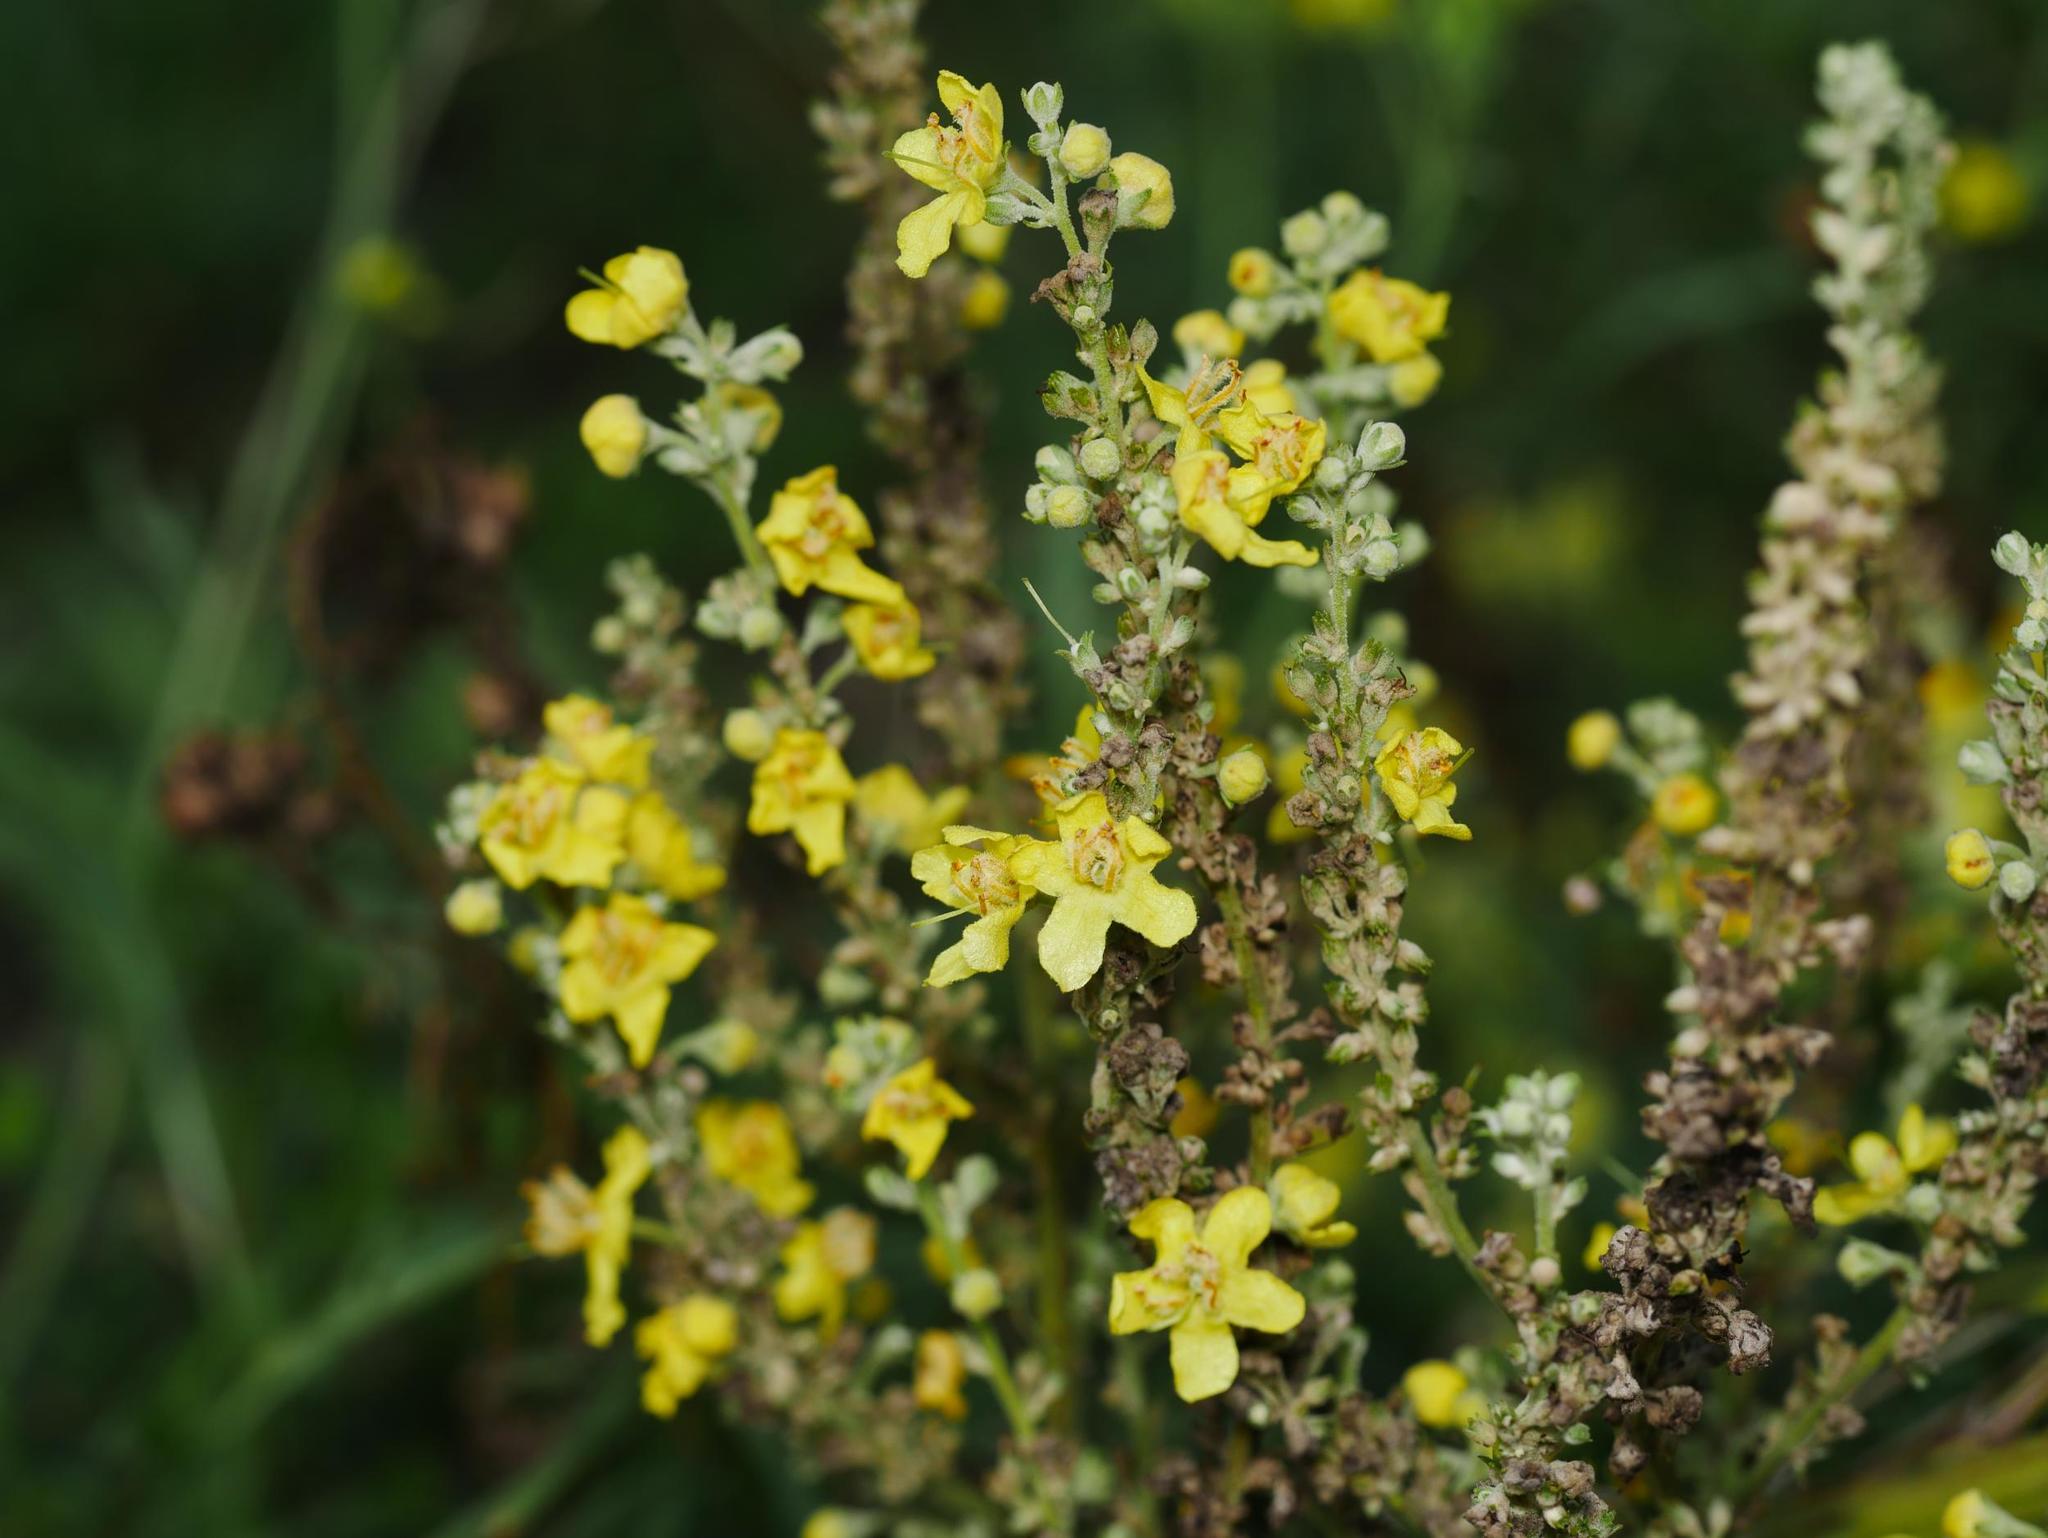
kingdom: Plantae
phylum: Tracheophyta
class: Magnoliopsida
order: Lamiales
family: Scrophulariaceae
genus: Verbascum
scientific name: Verbascum lychnitis
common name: White mullein
